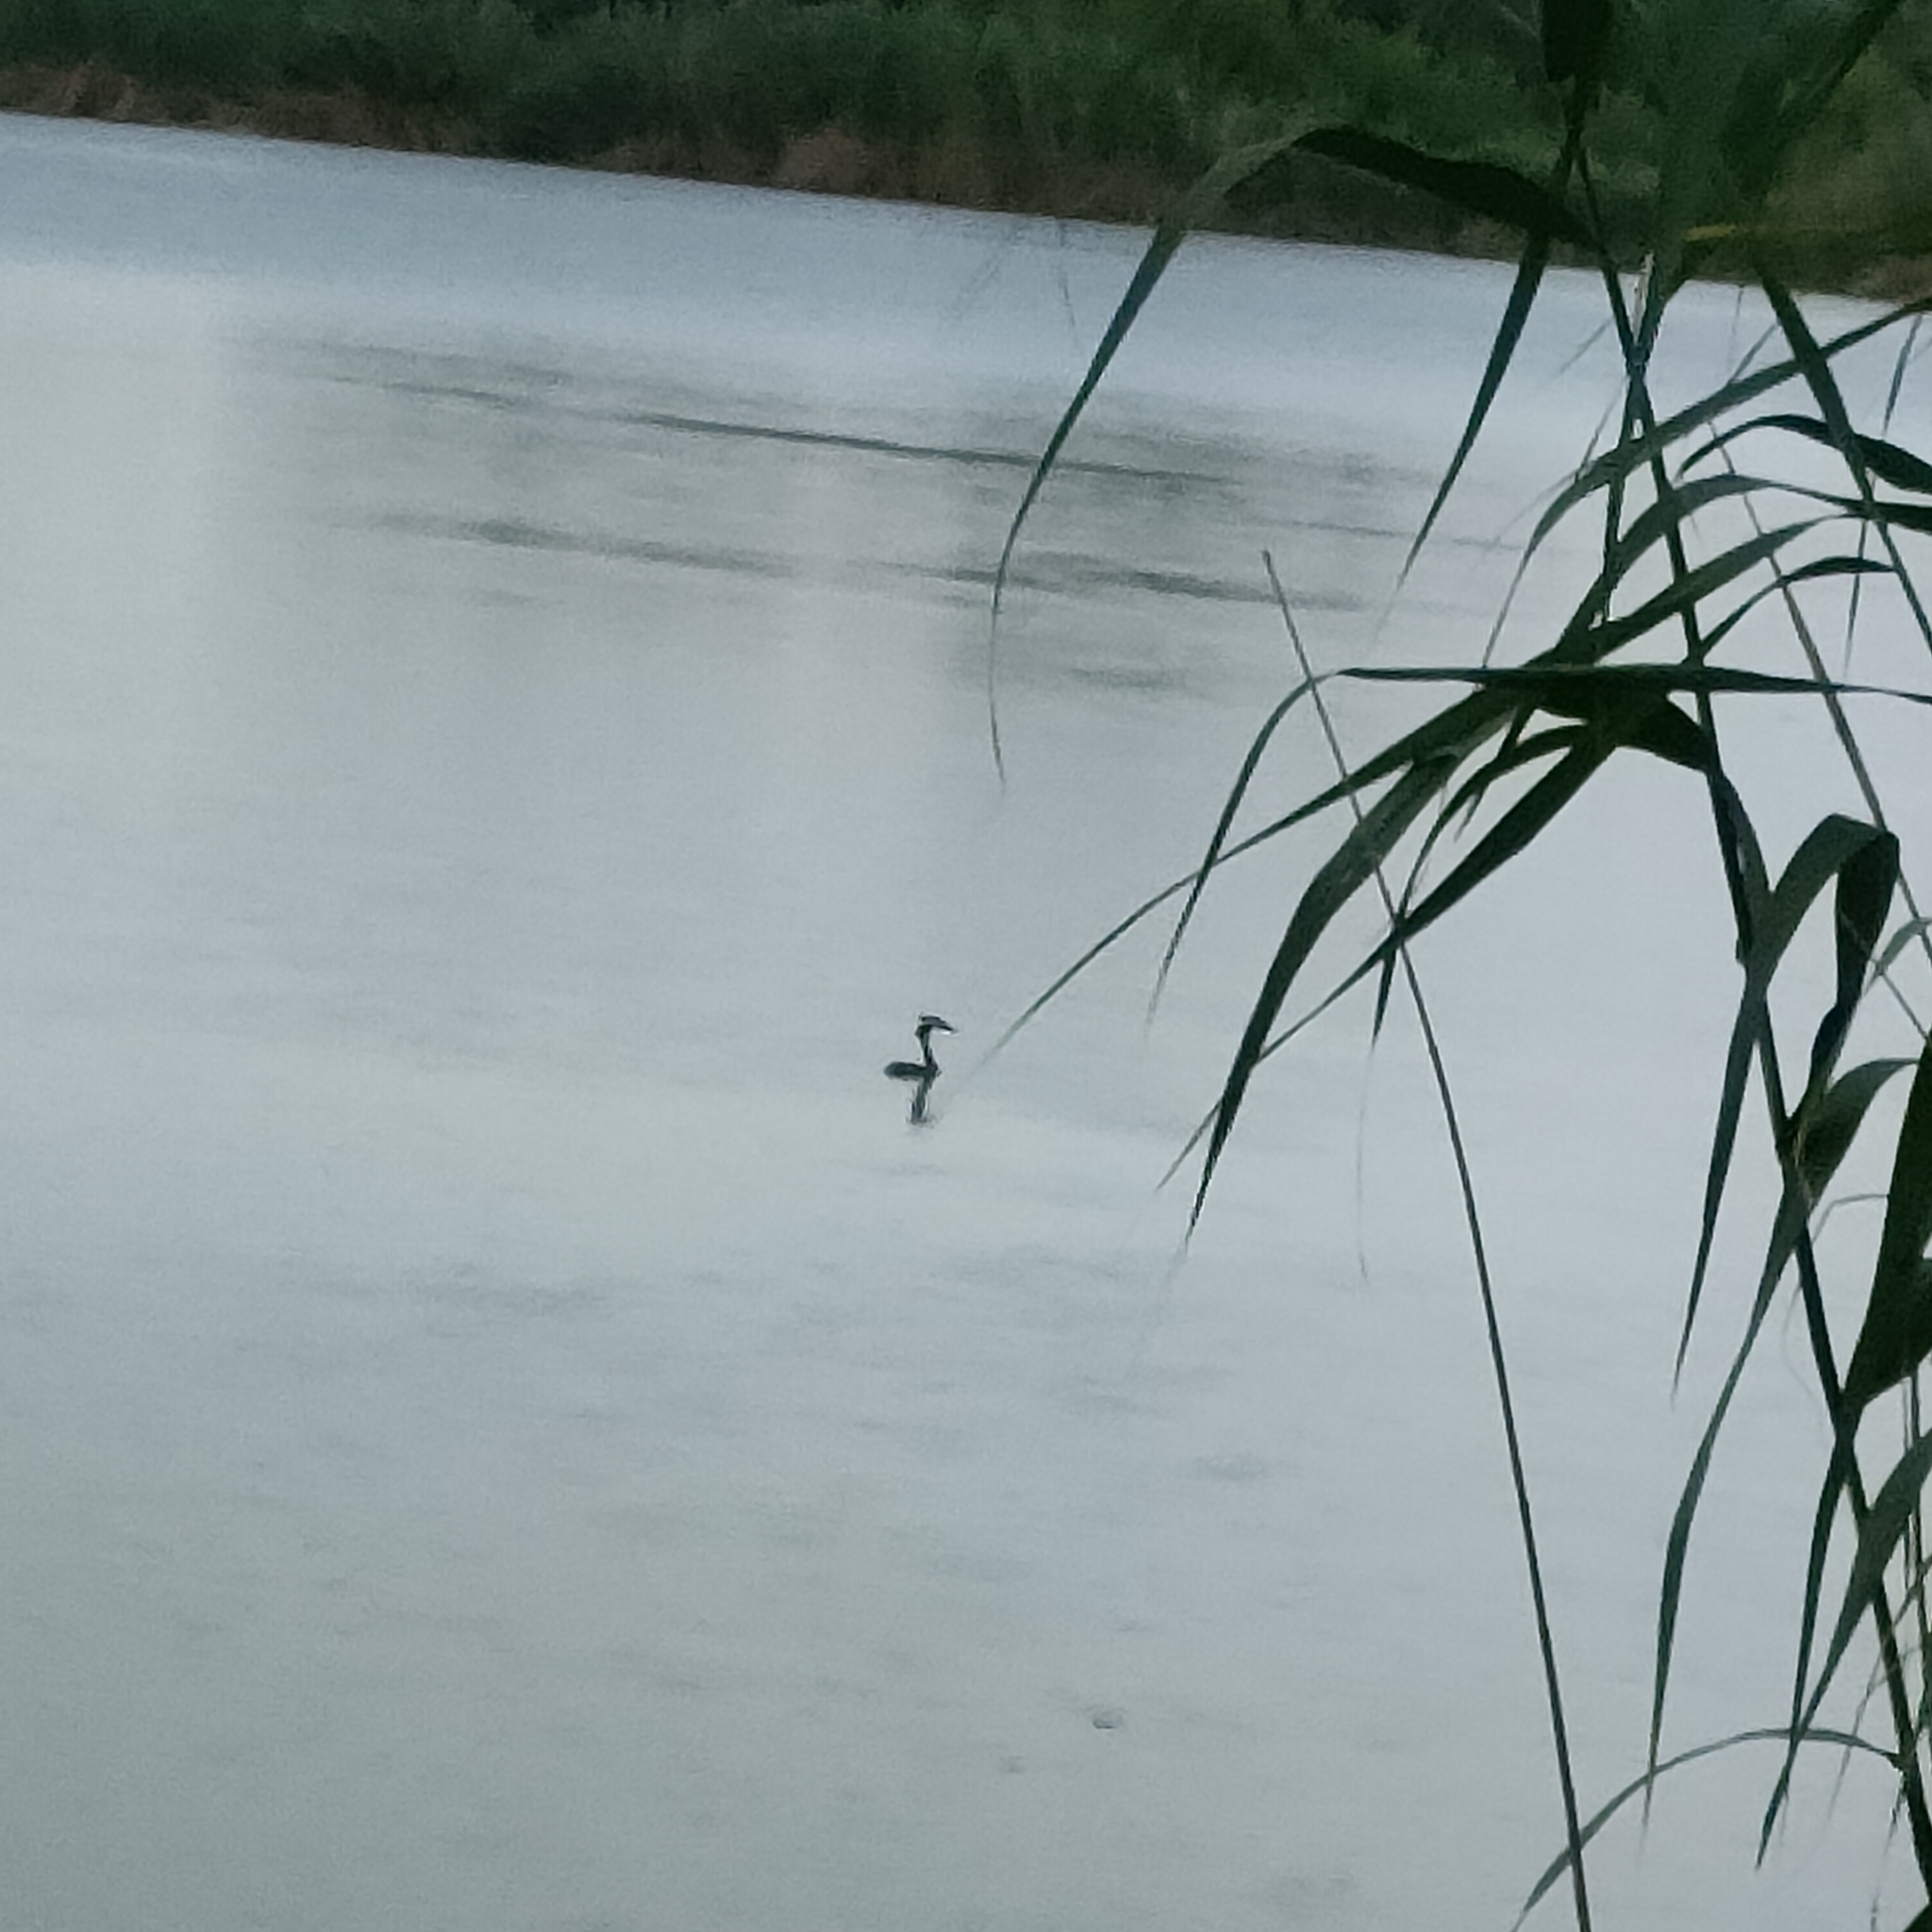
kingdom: Animalia
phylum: Chordata
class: Aves
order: Podicipediformes
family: Podicipedidae
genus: Podiceps
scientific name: Podiceps cristatus
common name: Great crested grebe
